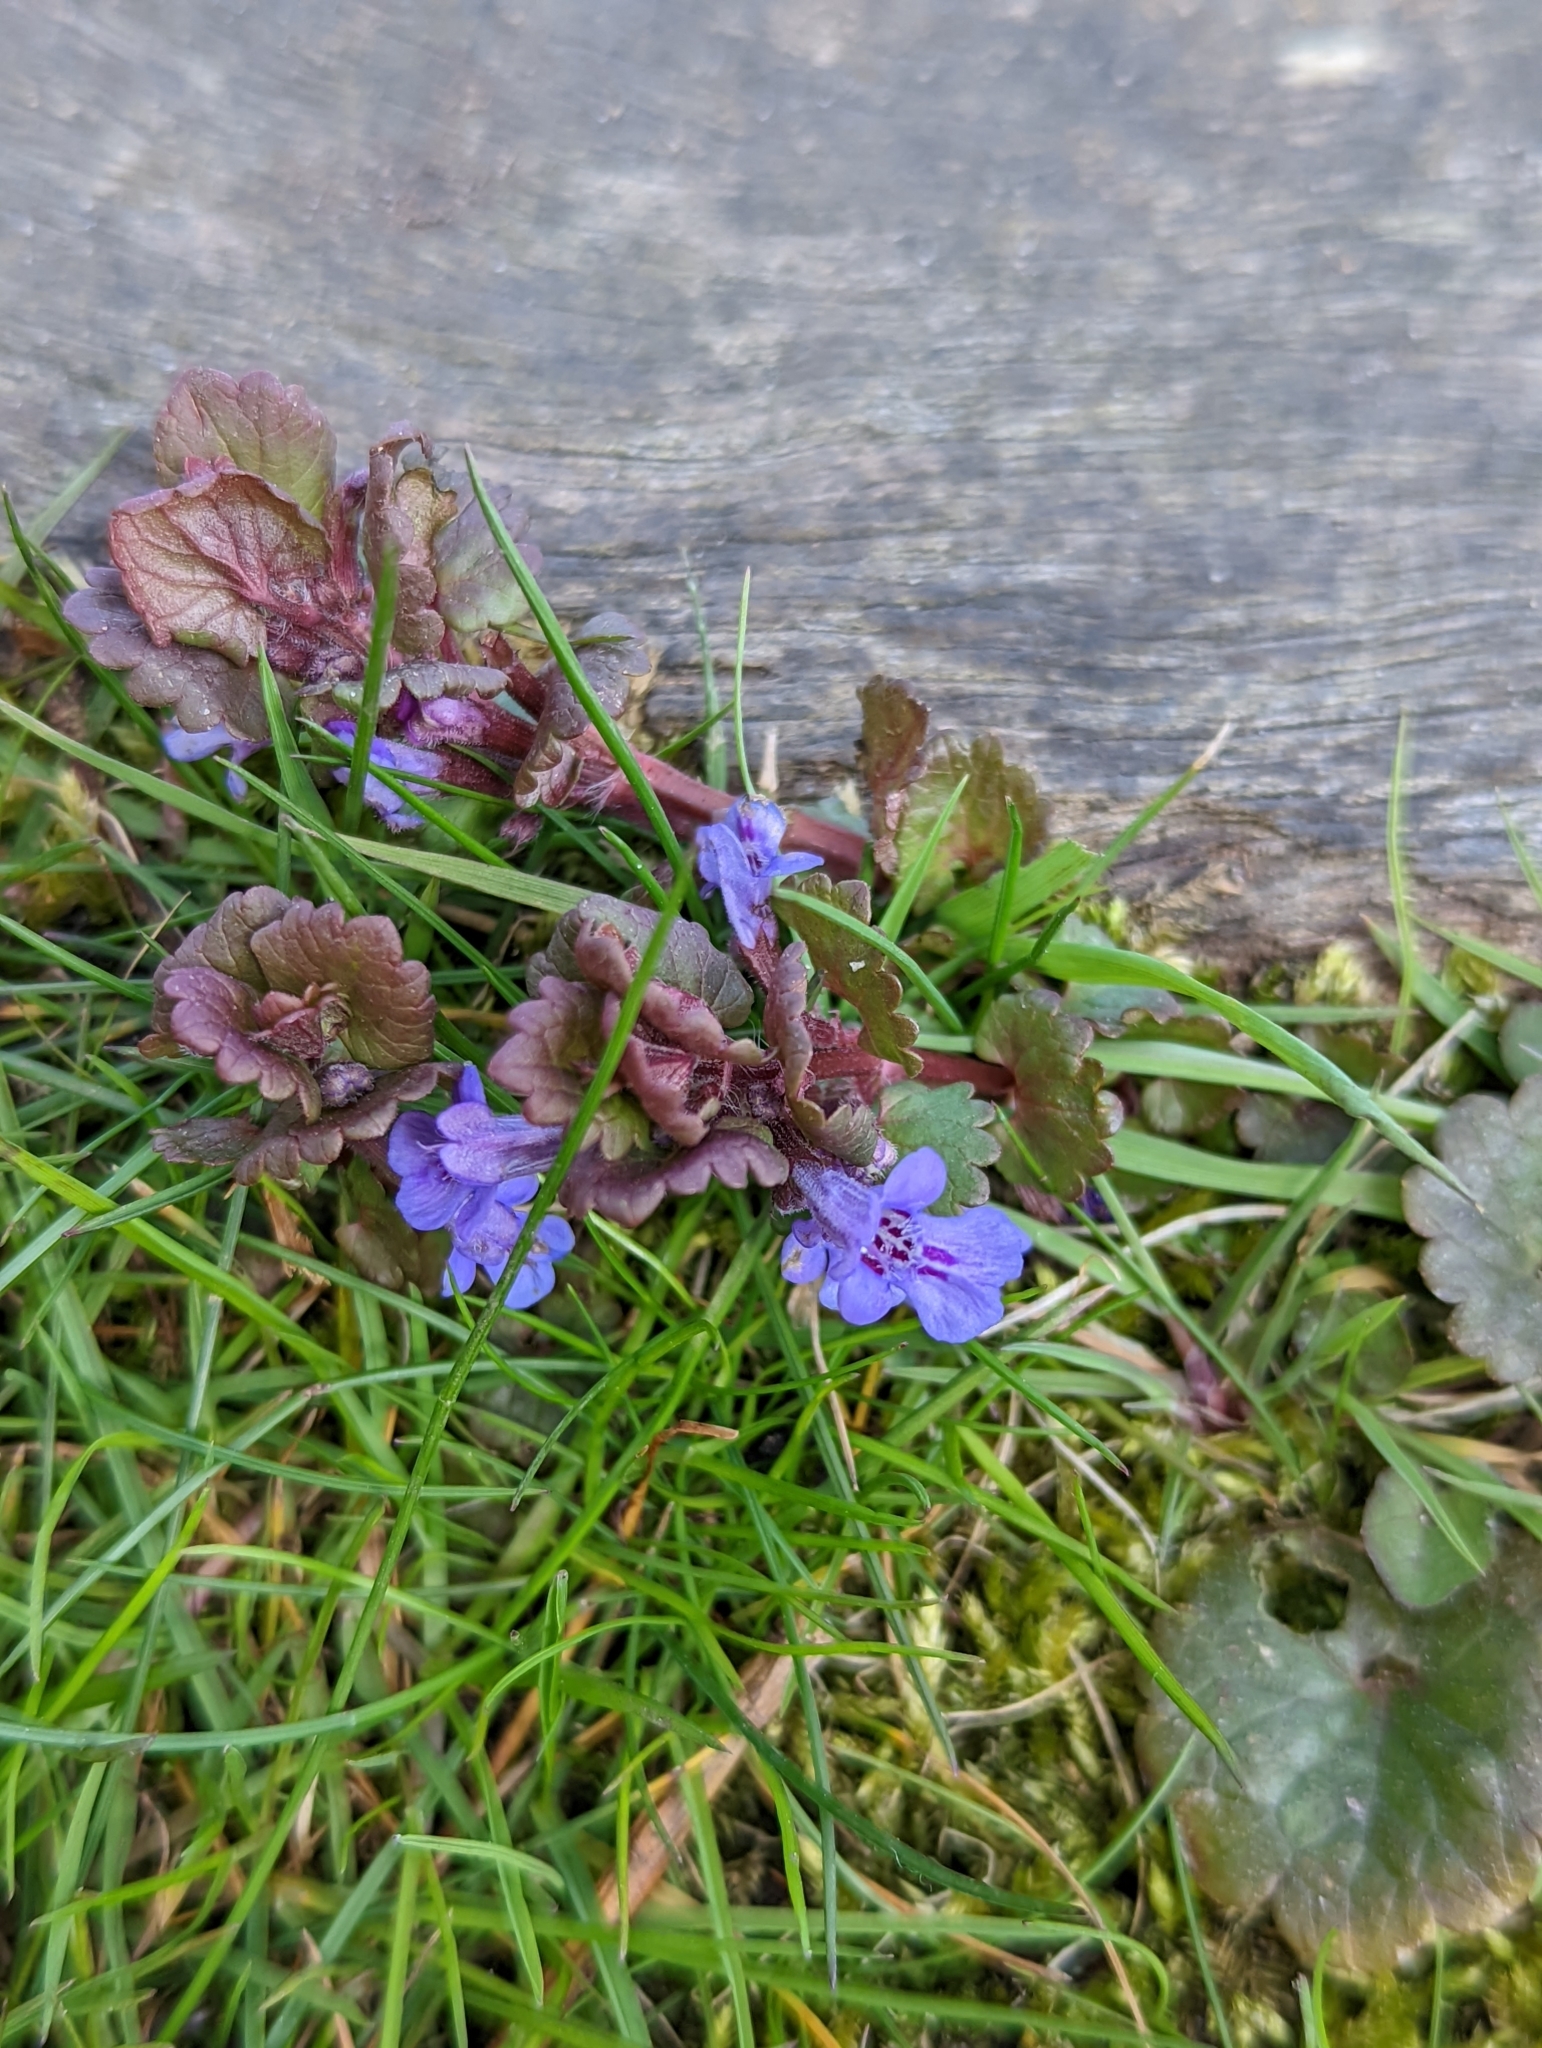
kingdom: Plantae
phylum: Tracheophyta
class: Magnoliopsida
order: Lamiales
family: Lamiaceae
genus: Glechoma
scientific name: Glechoma hederacea
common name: Ground ivy
